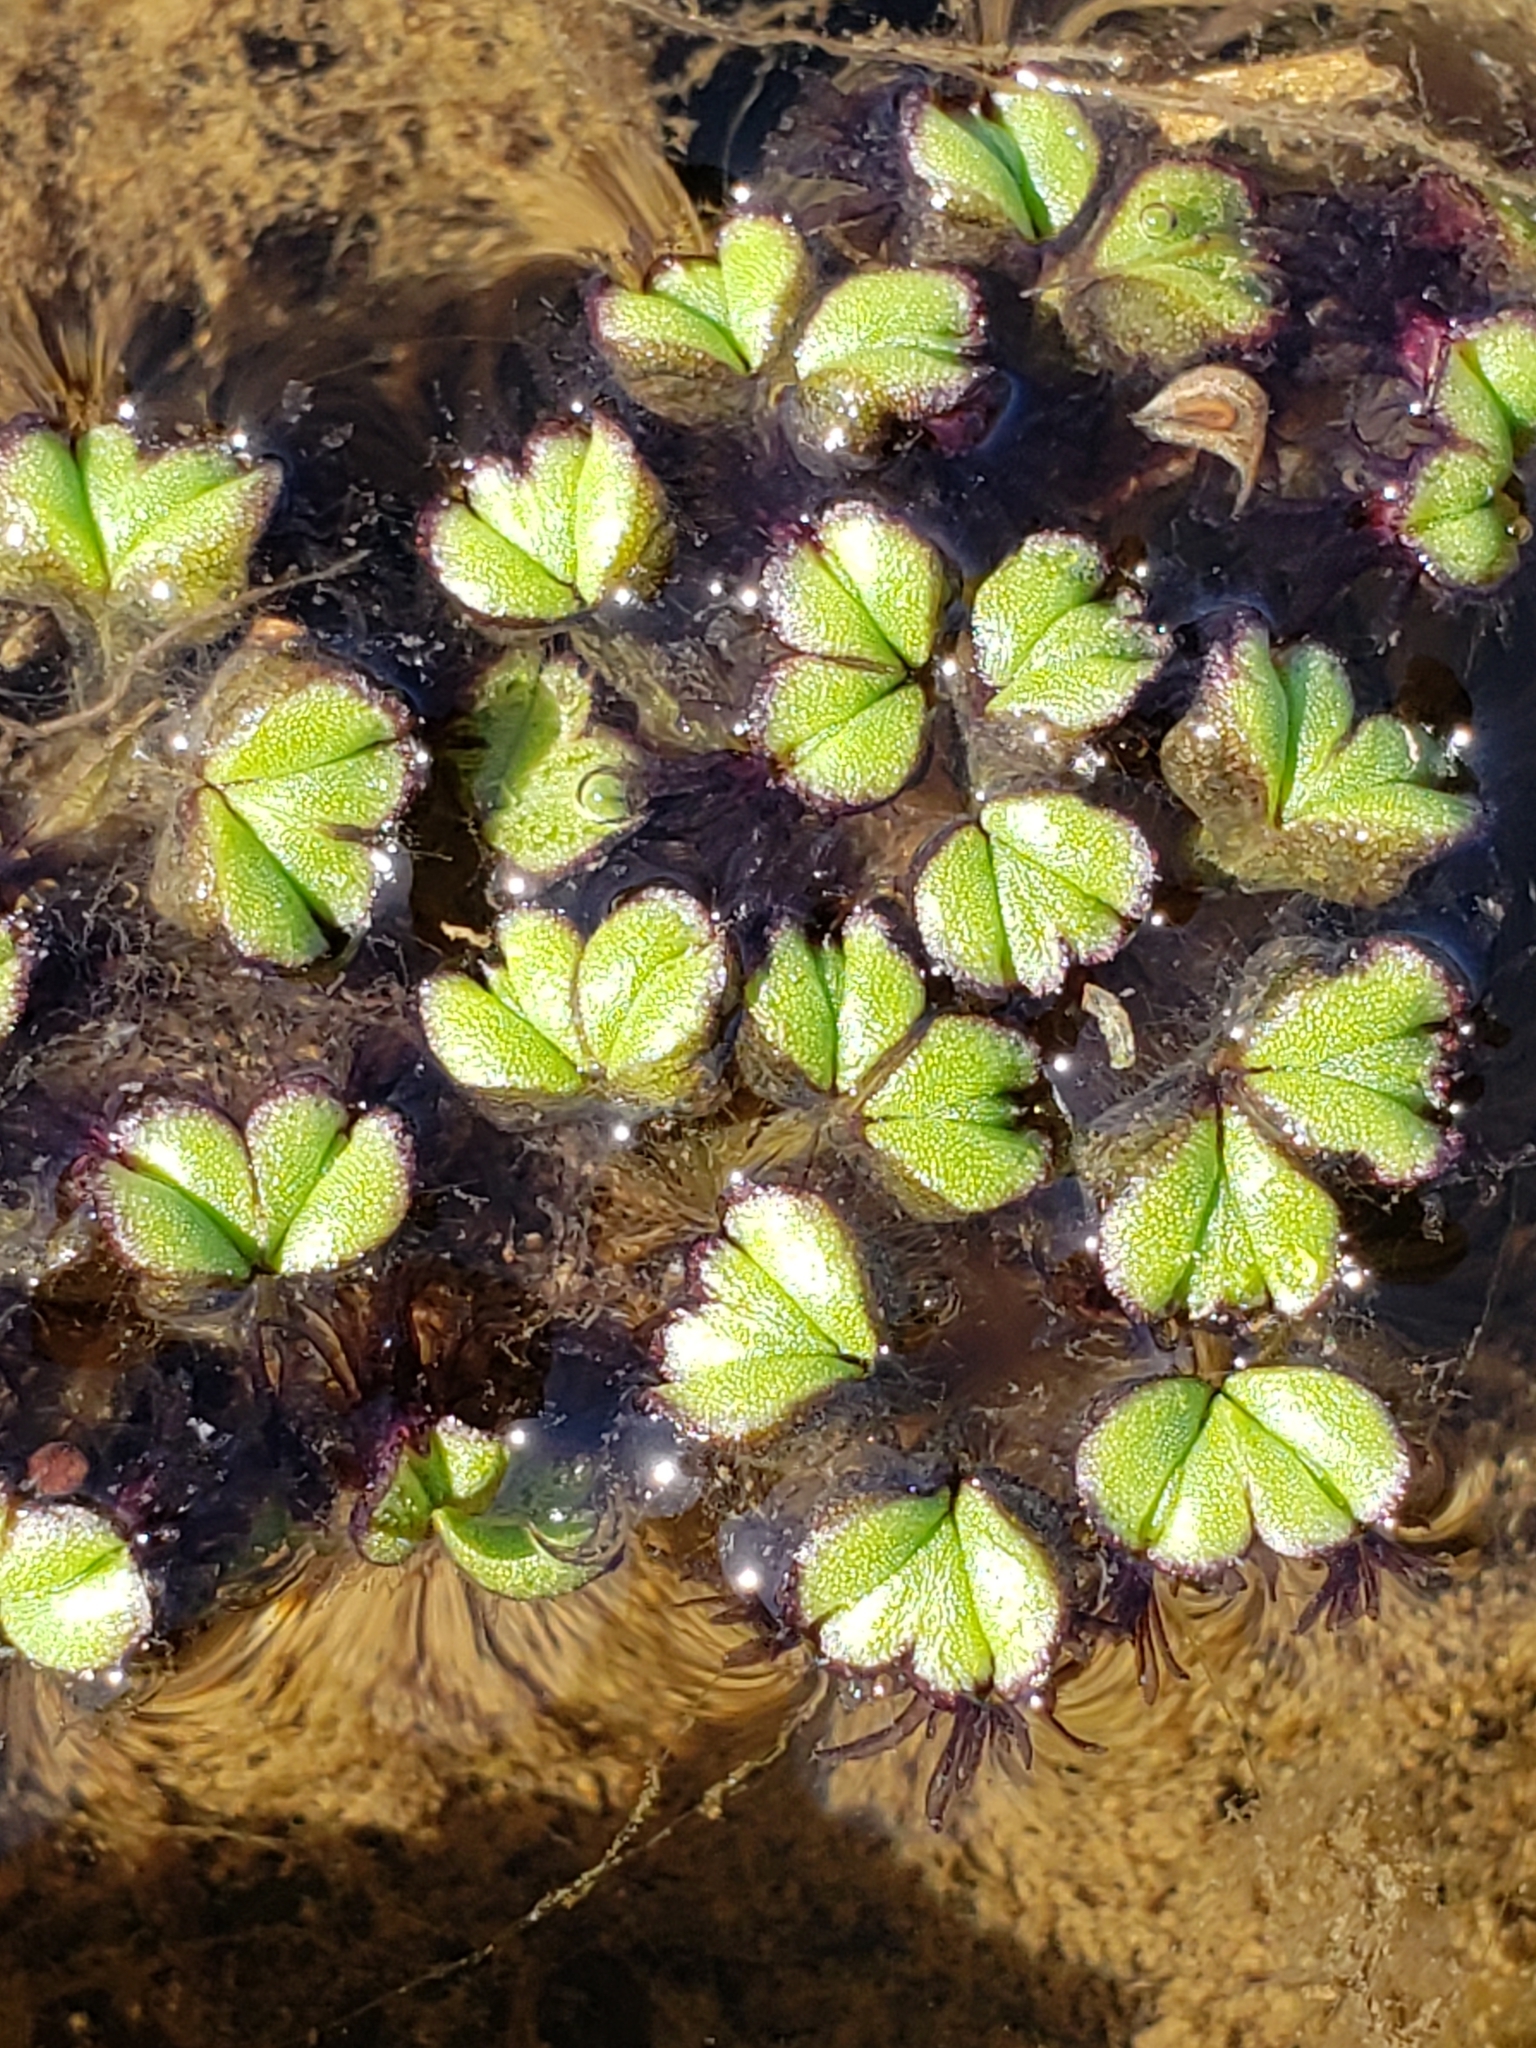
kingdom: Plantae
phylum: Marchantiophyta
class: Marchantiopsida
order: Marchantiales
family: Ricciaceae
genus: Ricciocarpos
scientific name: Ricciocarpos natans
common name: Purple-fringed liverwort
